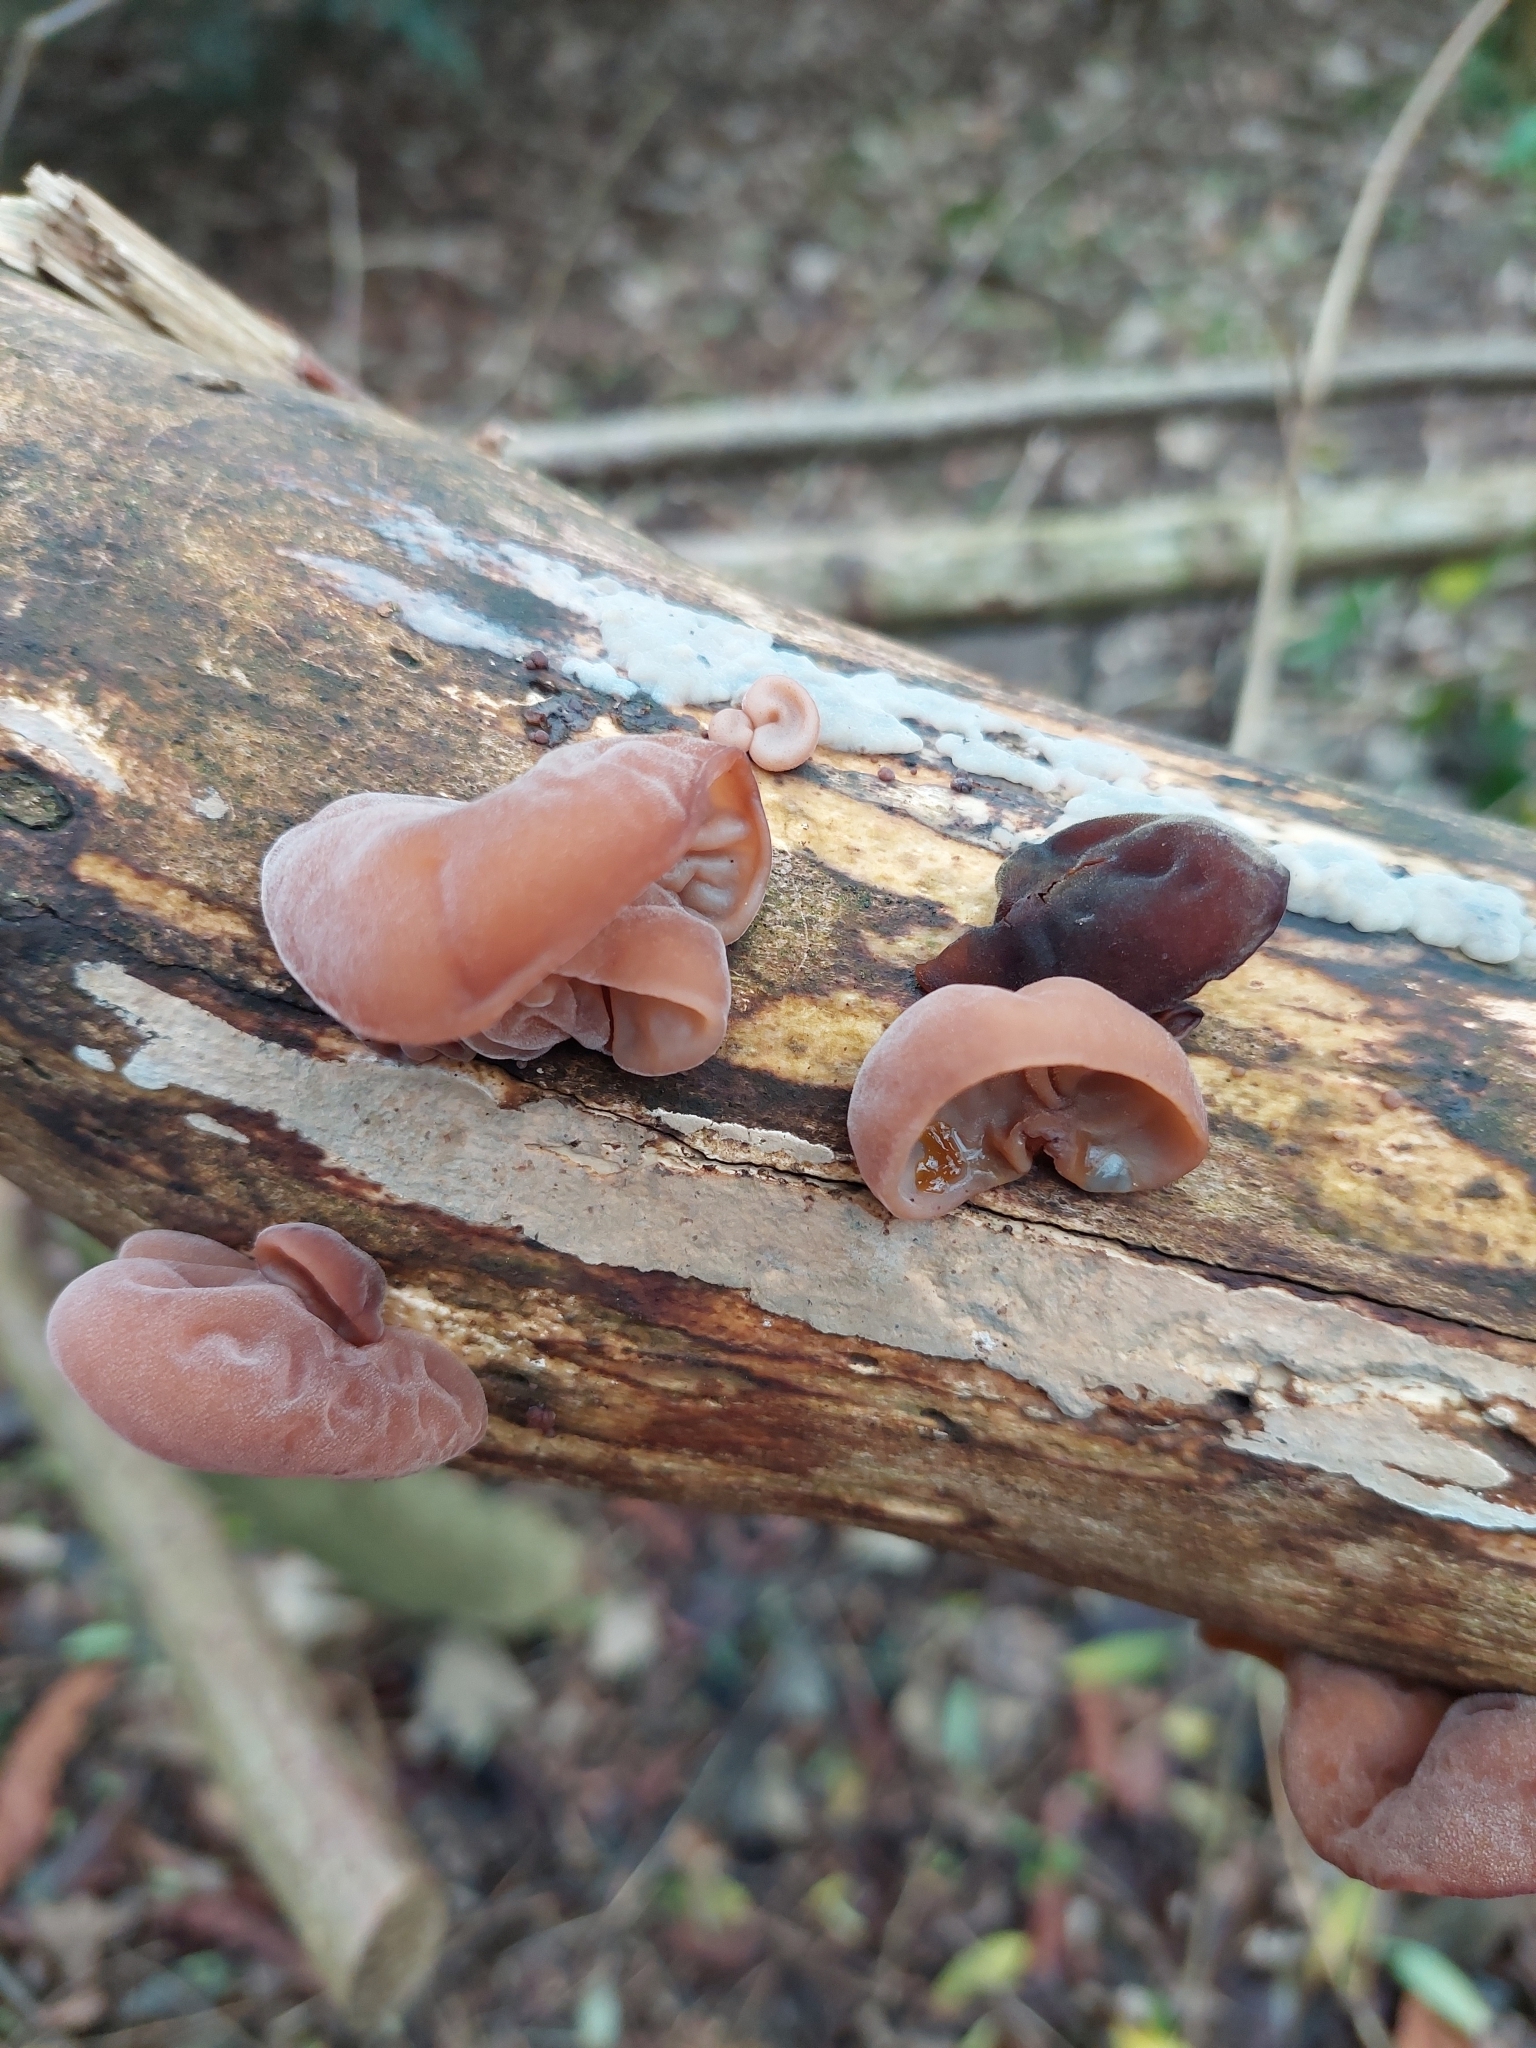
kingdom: Fungi
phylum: Basidiomycota
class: Agaricomycetes
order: Auriculariales
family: Auriculariaceae
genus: Auricularia
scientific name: Auricularia auricula-judae
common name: Jelly ear
